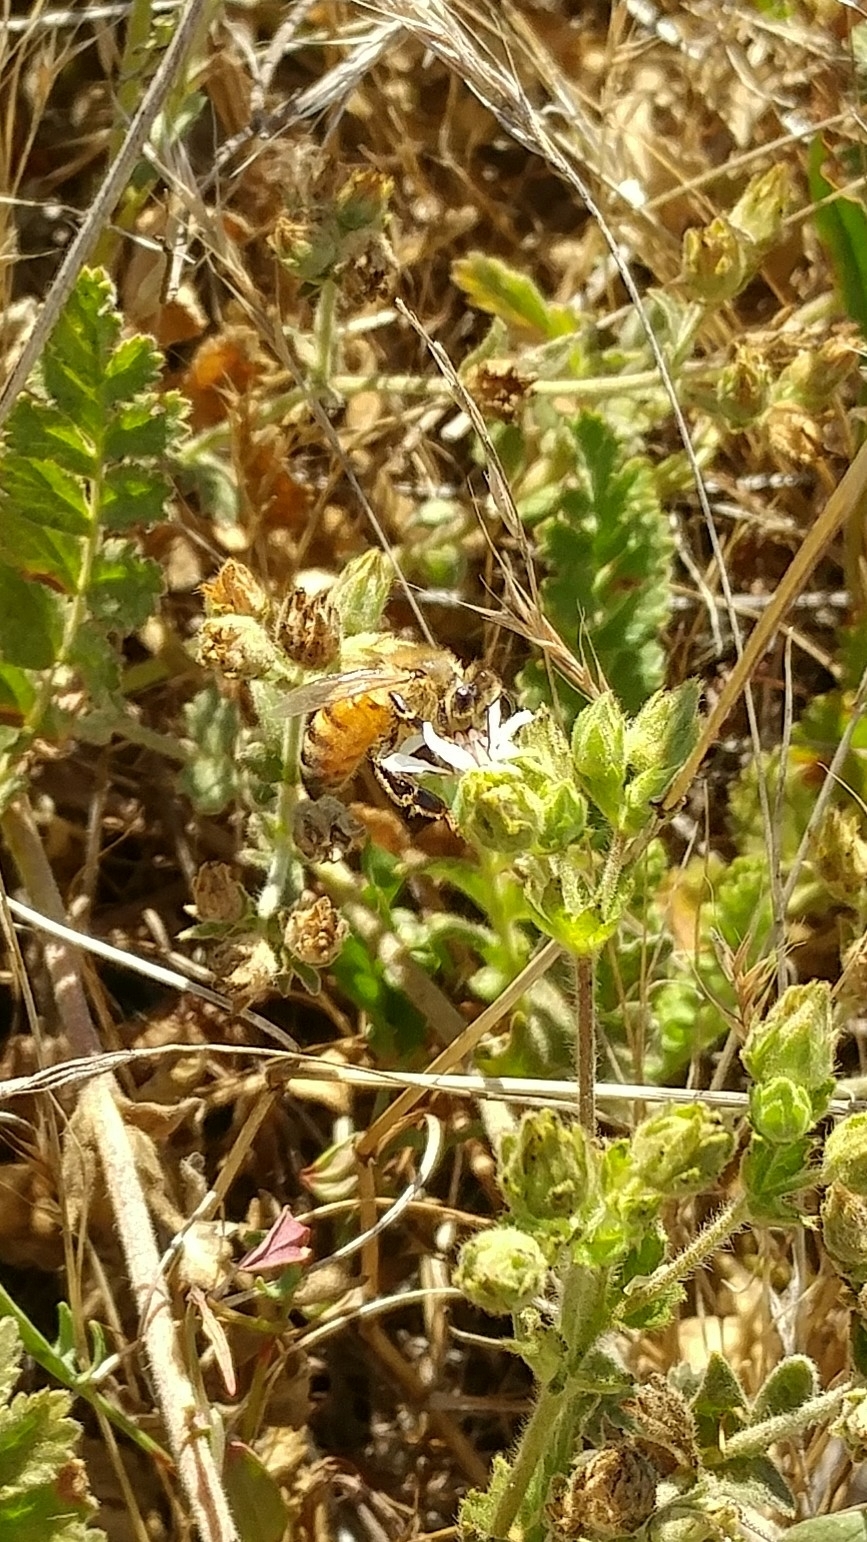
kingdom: Animalia
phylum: Arthropoda
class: Insecta
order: Hymenoptera
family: Apidae
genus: Apis
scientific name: Apis mellifera
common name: Honey bee
